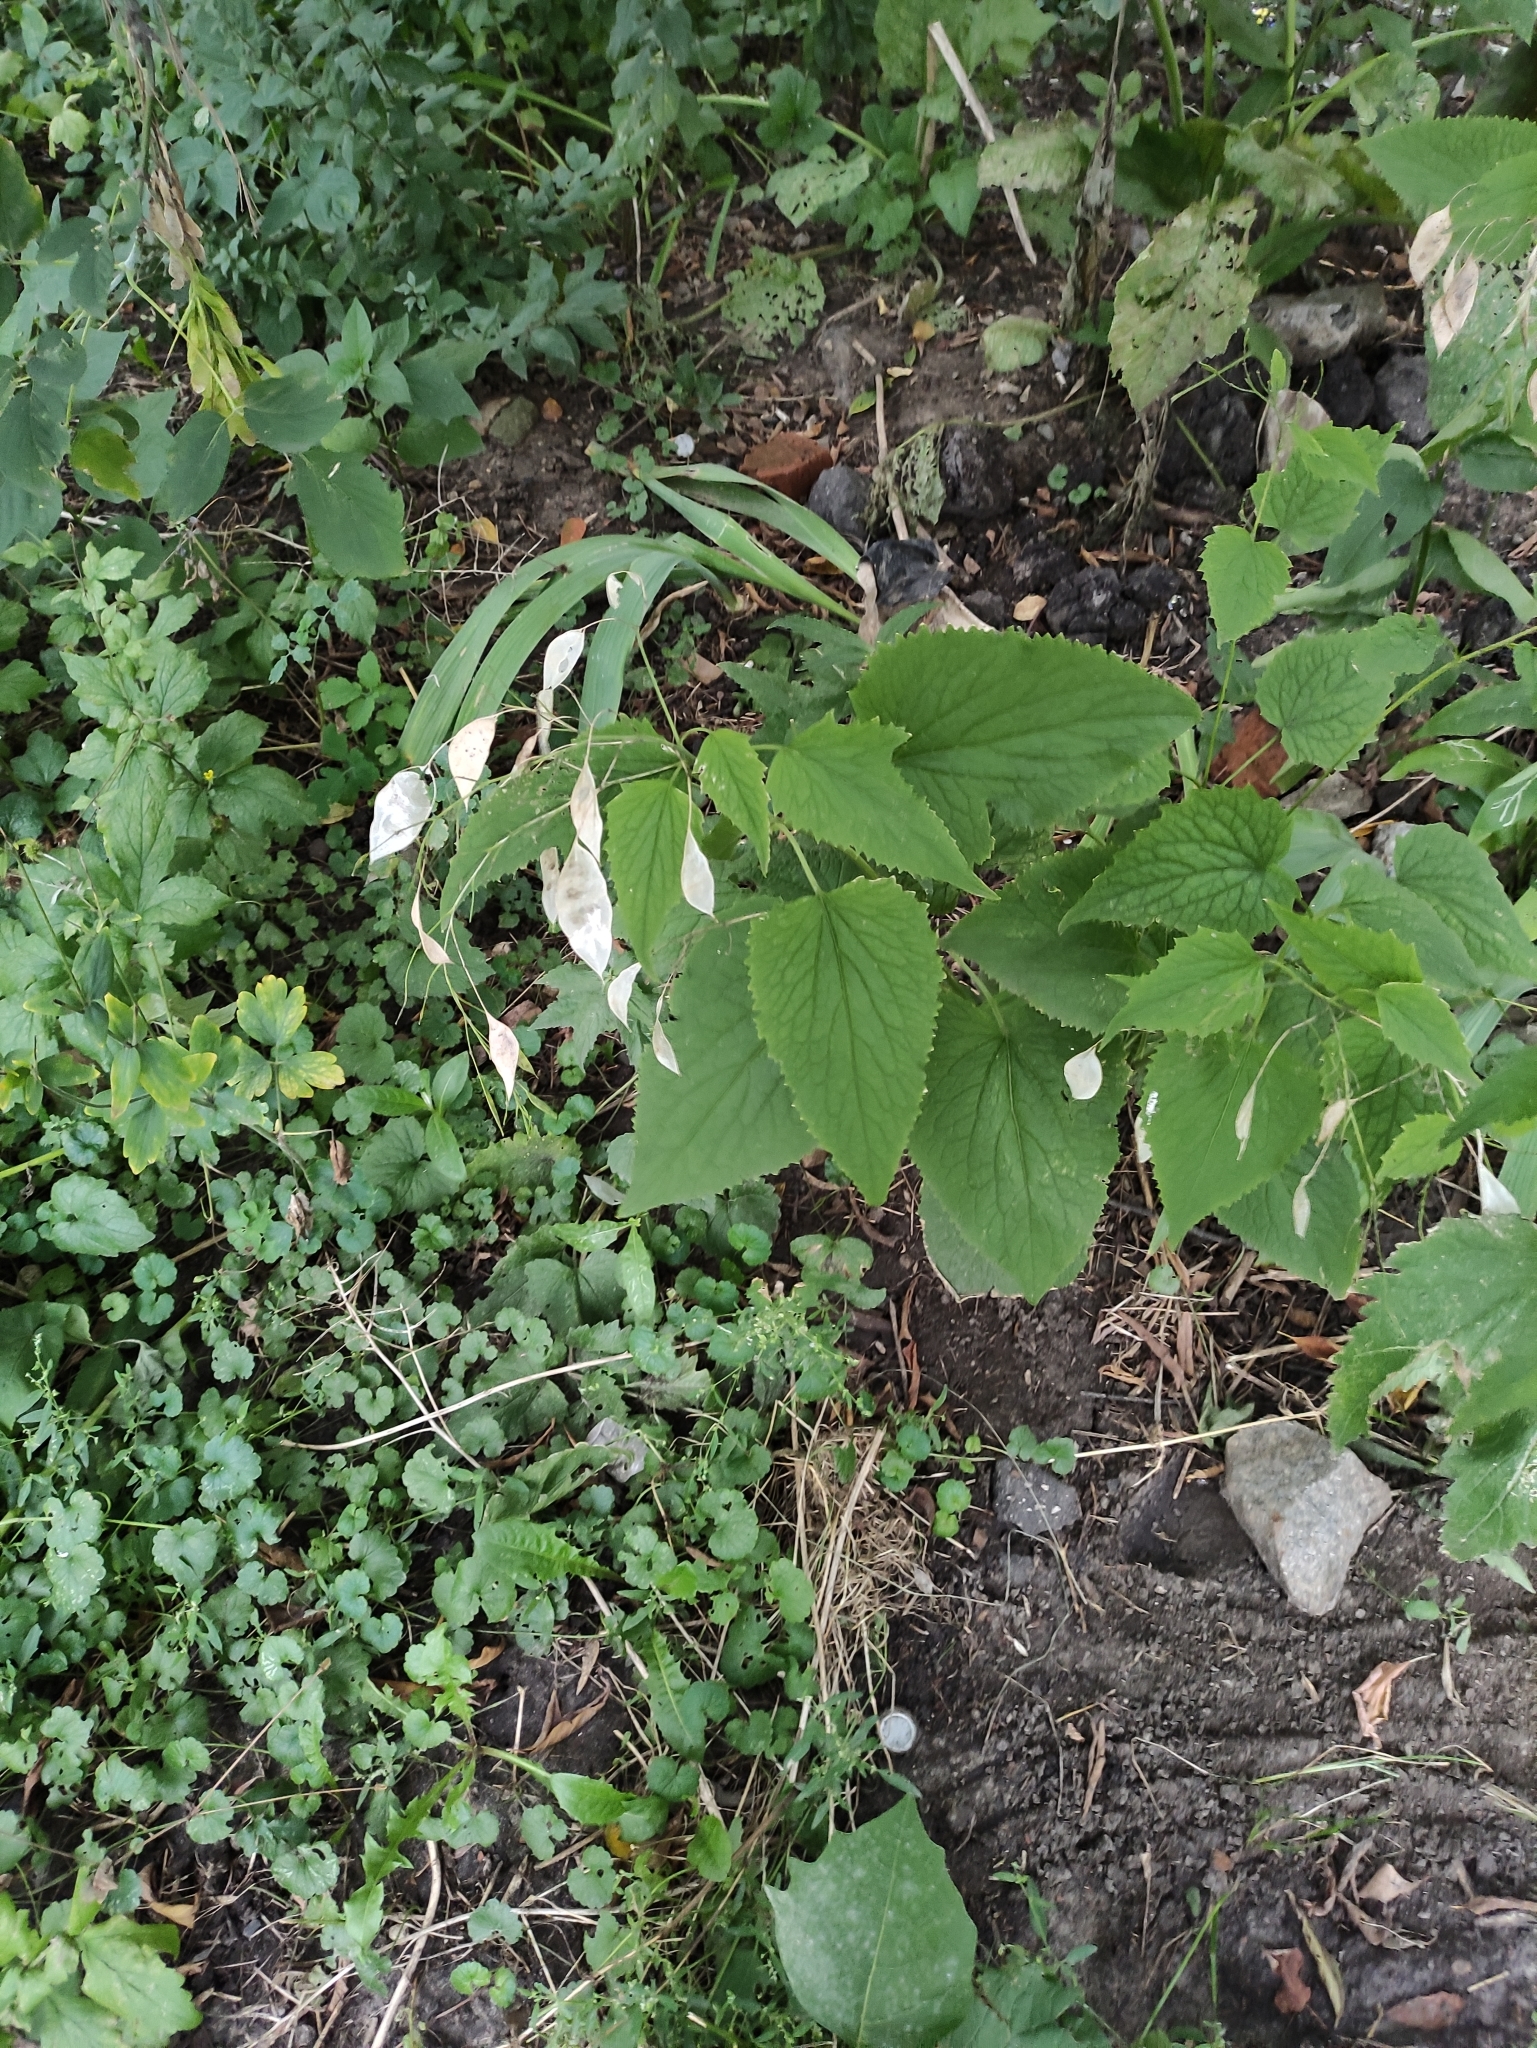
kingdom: Plantae
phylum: Tracheophyta
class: Magnoliopsida
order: Brassicales
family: Brassicaceae
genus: Lunaria
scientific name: Lunaria rediviva
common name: Perennial honesty
